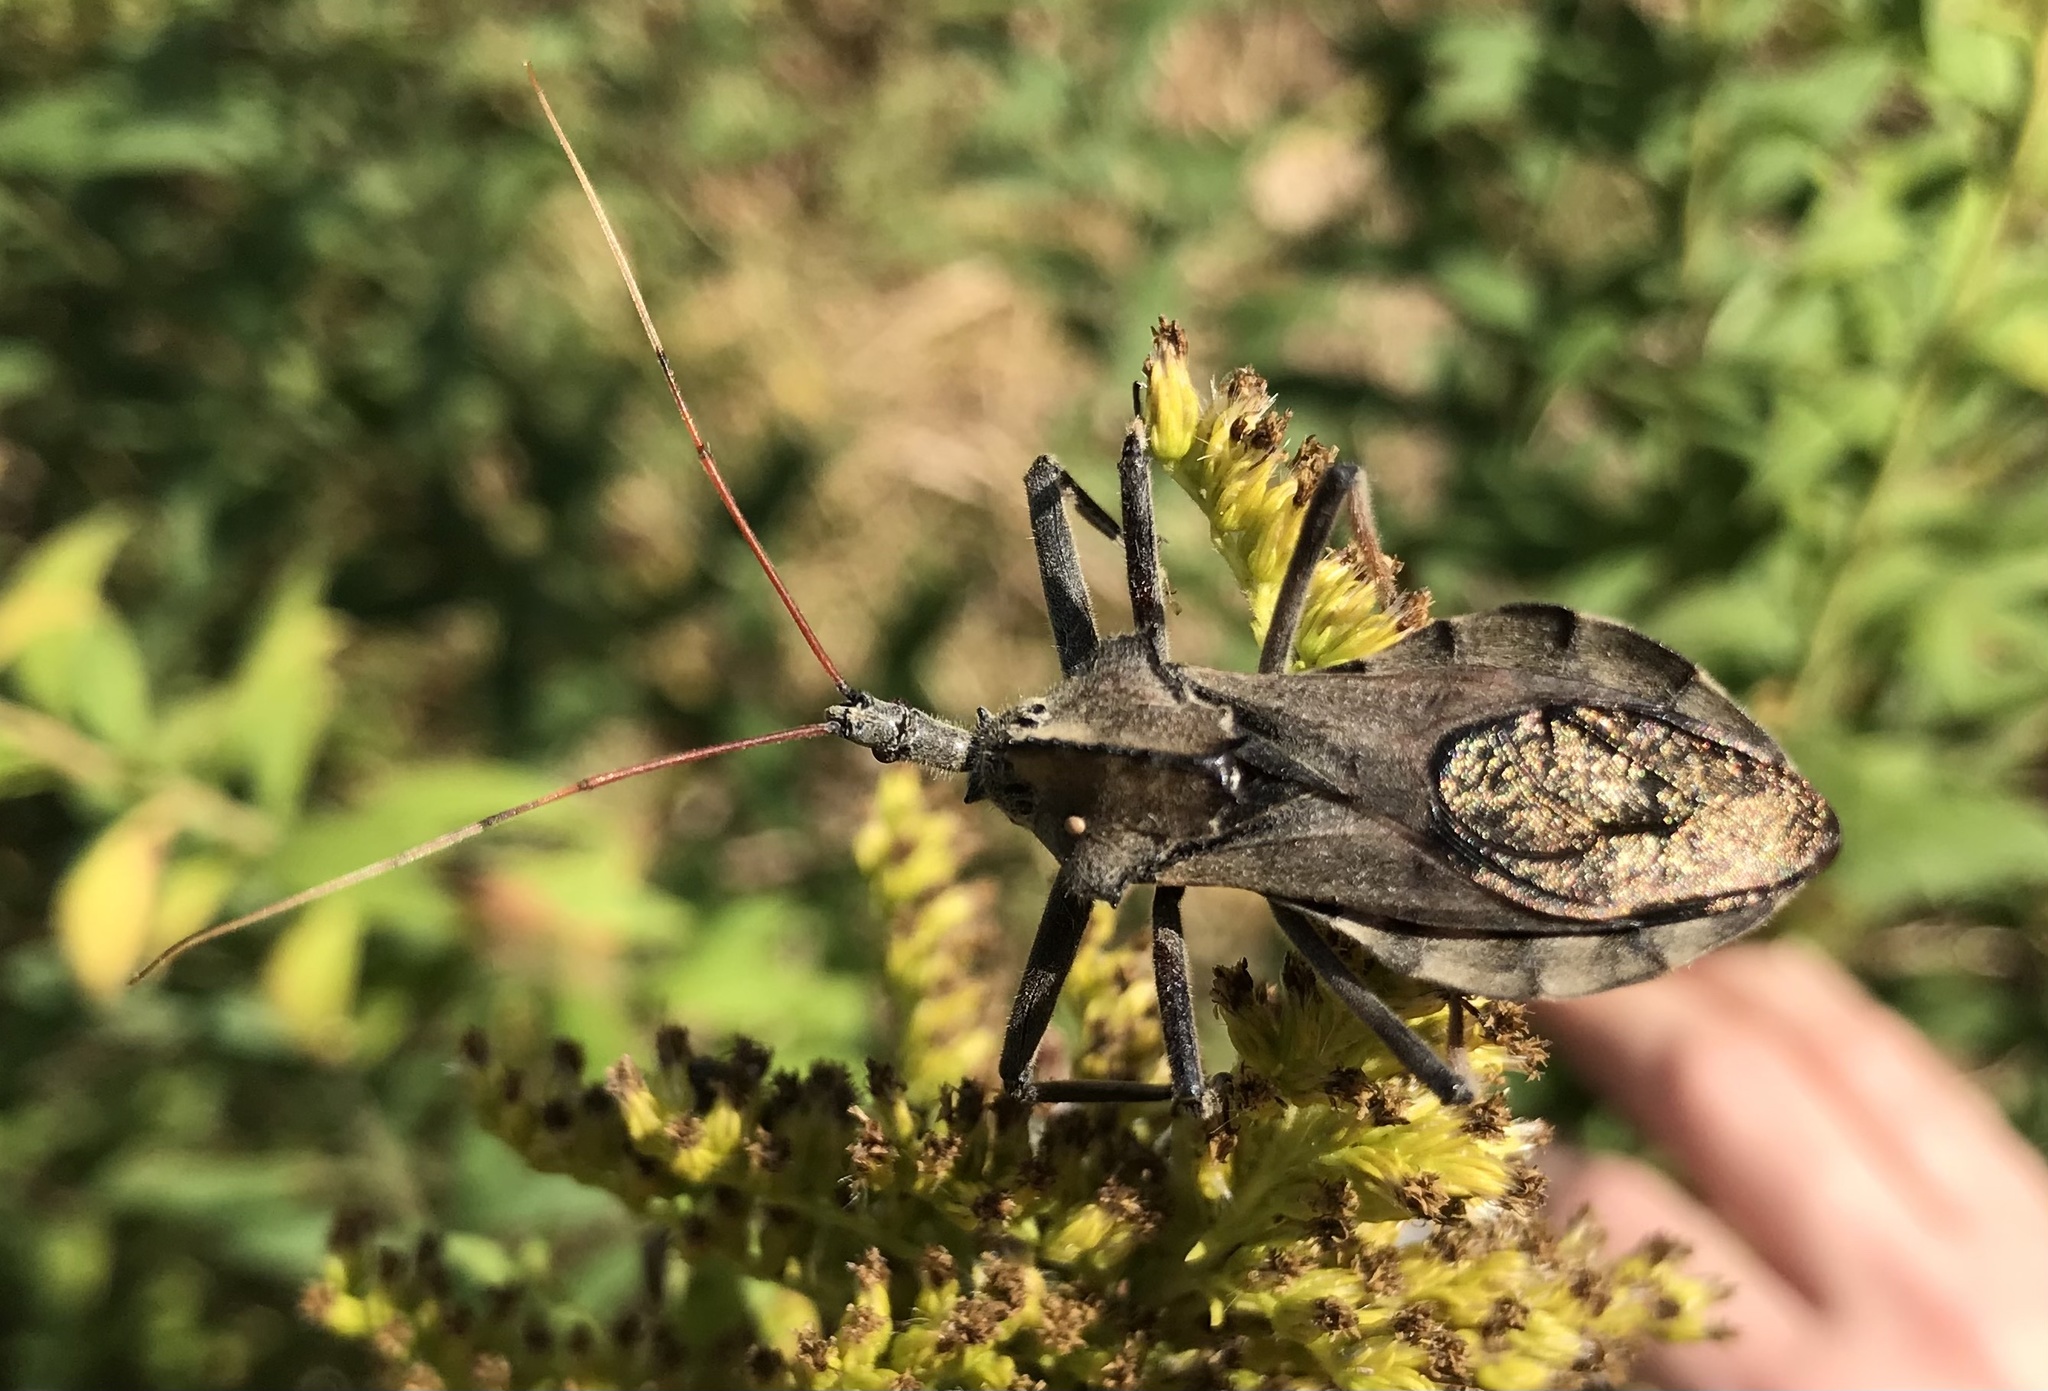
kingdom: Animalia
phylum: Arthropoda
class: Insecta
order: Hemiptera
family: Reduviidae
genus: Arilus
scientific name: Arilus cristatus
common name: North american wheel bug
